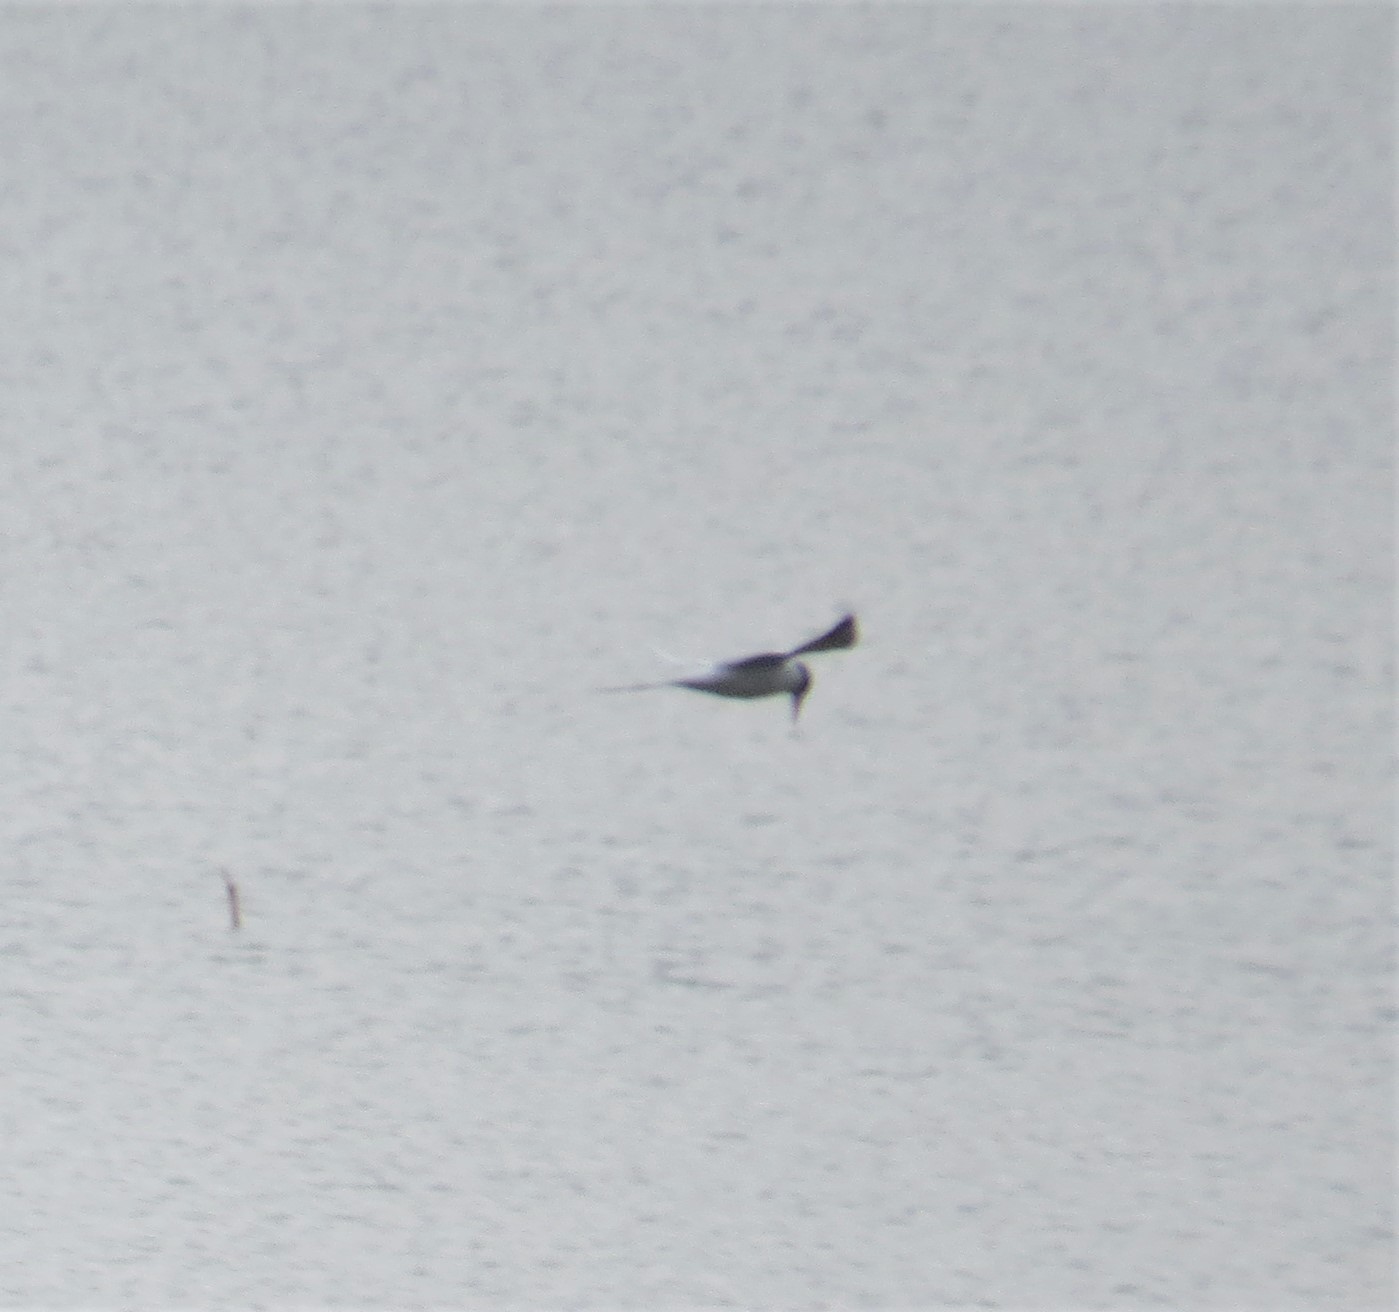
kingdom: Animalia
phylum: Chordata
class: Aves
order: Charadriiformes
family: Laridae
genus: Sterna
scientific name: Sterna forsteri
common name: Forster's tern
